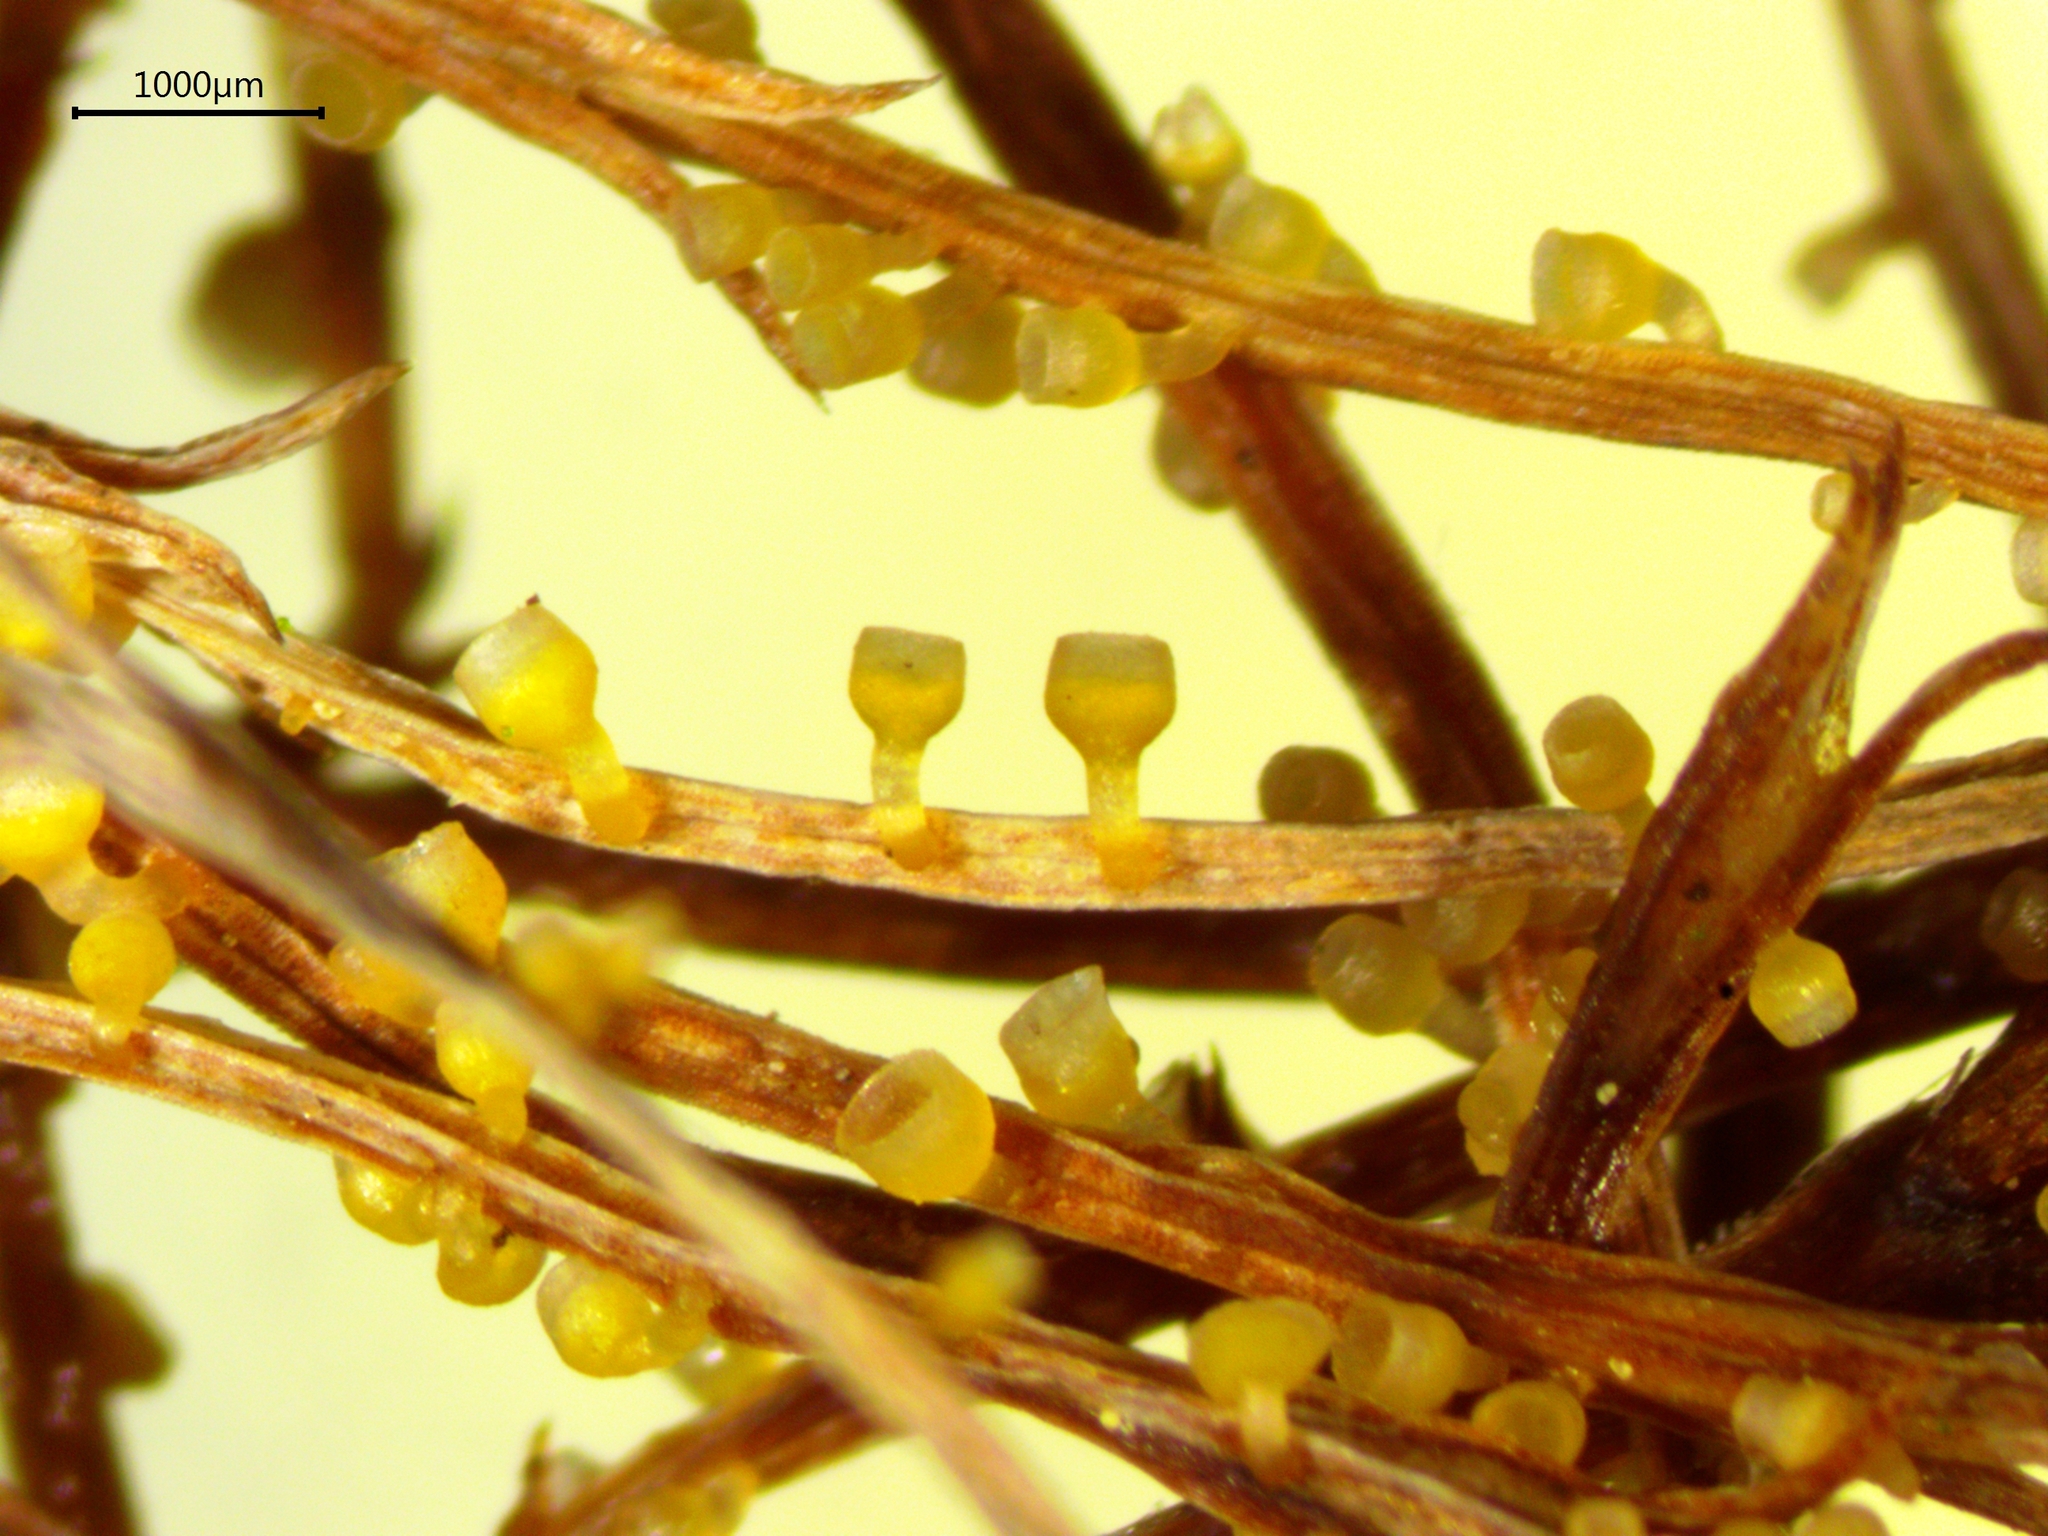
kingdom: Fungi
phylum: Ascomycota
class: Leotiomycetes
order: Helotiales
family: Helotiaceae
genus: Stamnaria
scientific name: Stamnaria yugrana
